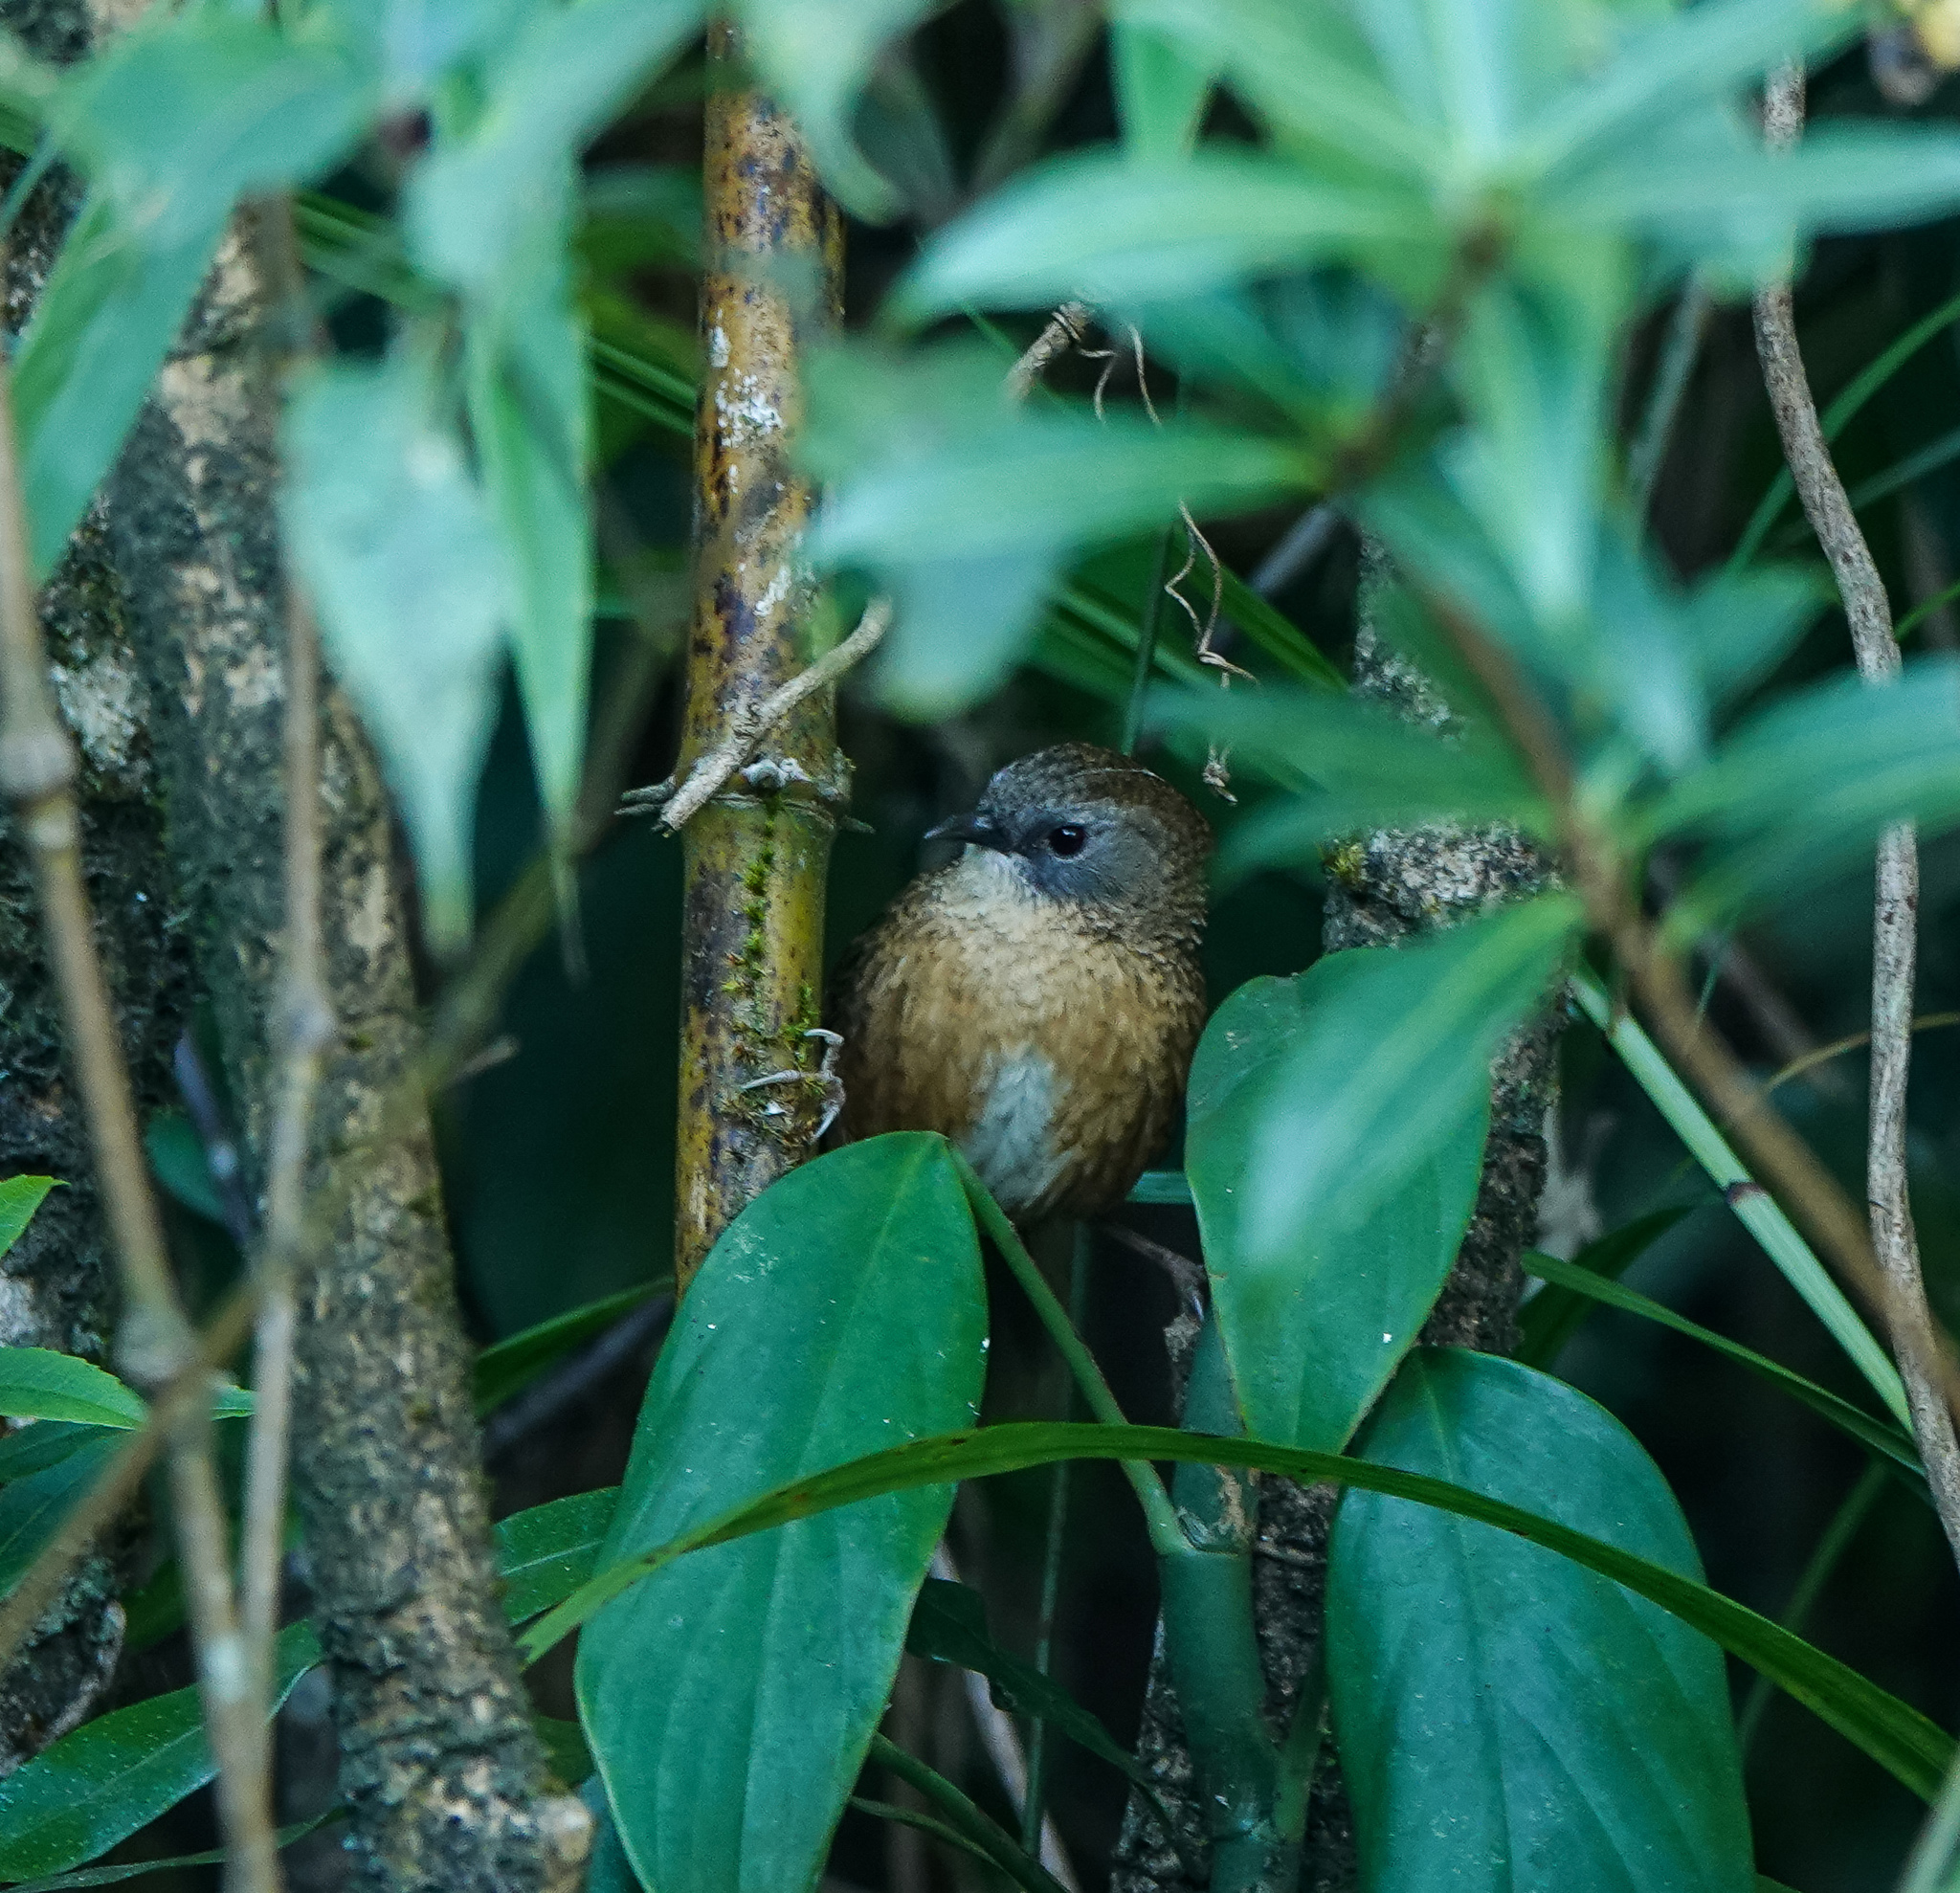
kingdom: Animalia
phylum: Chordata
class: Aves
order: Passeriformes
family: Timaliidae
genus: Spelaeornis
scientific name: Spelaeornis longicaudatus
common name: Tawny-breasted wren-babbler
